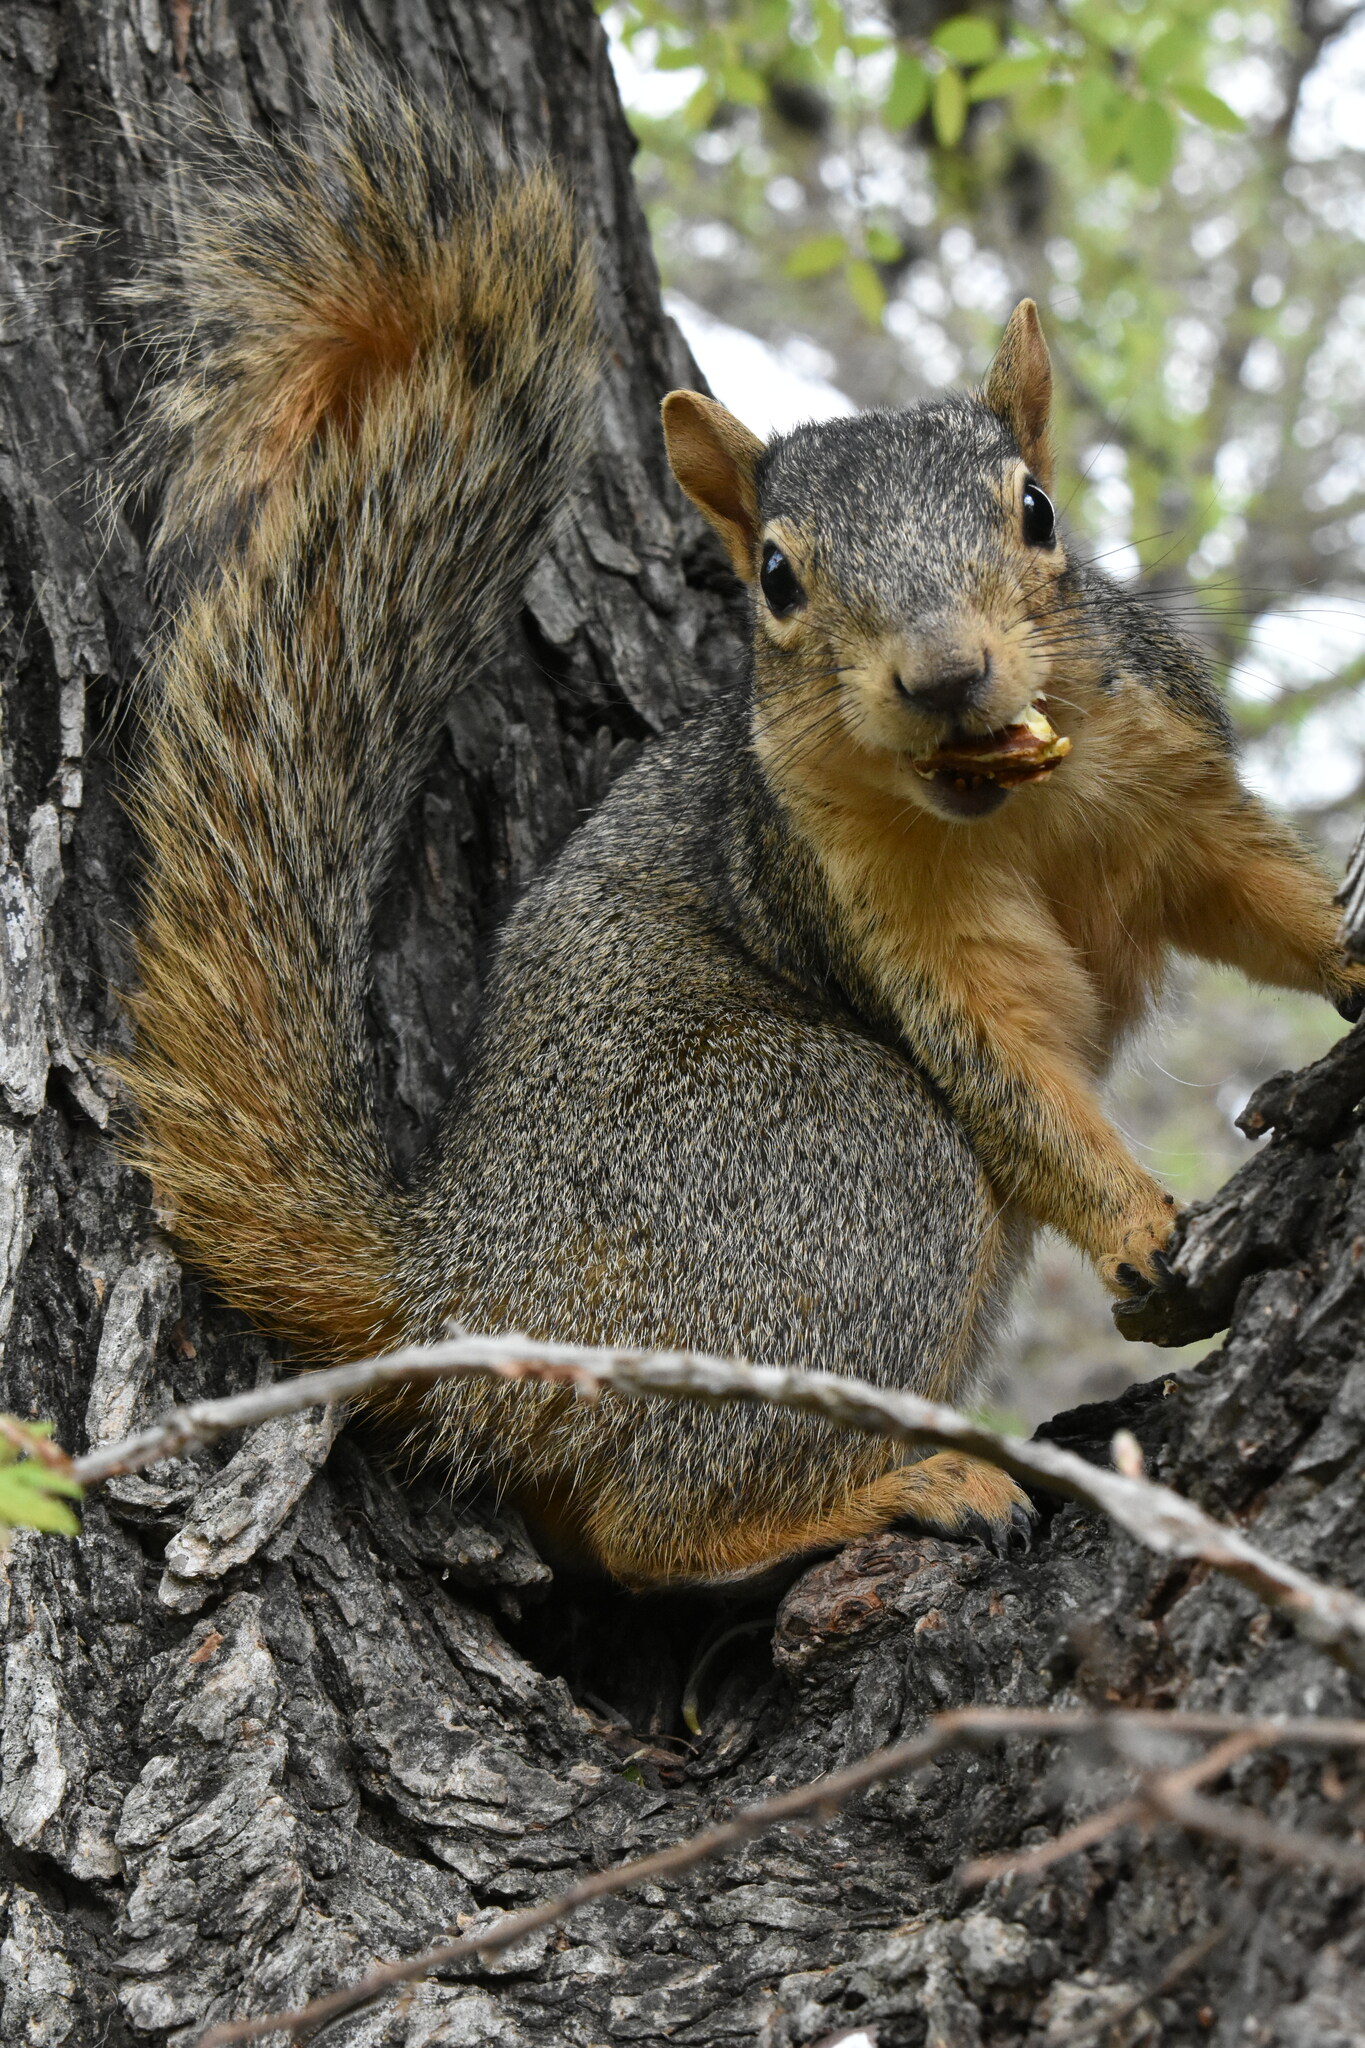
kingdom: Animalia
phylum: Chordata
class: Mammalia
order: Rodentia
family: Sciuridae
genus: Sciurus
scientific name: Sciurus niger
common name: Fox squirrel
